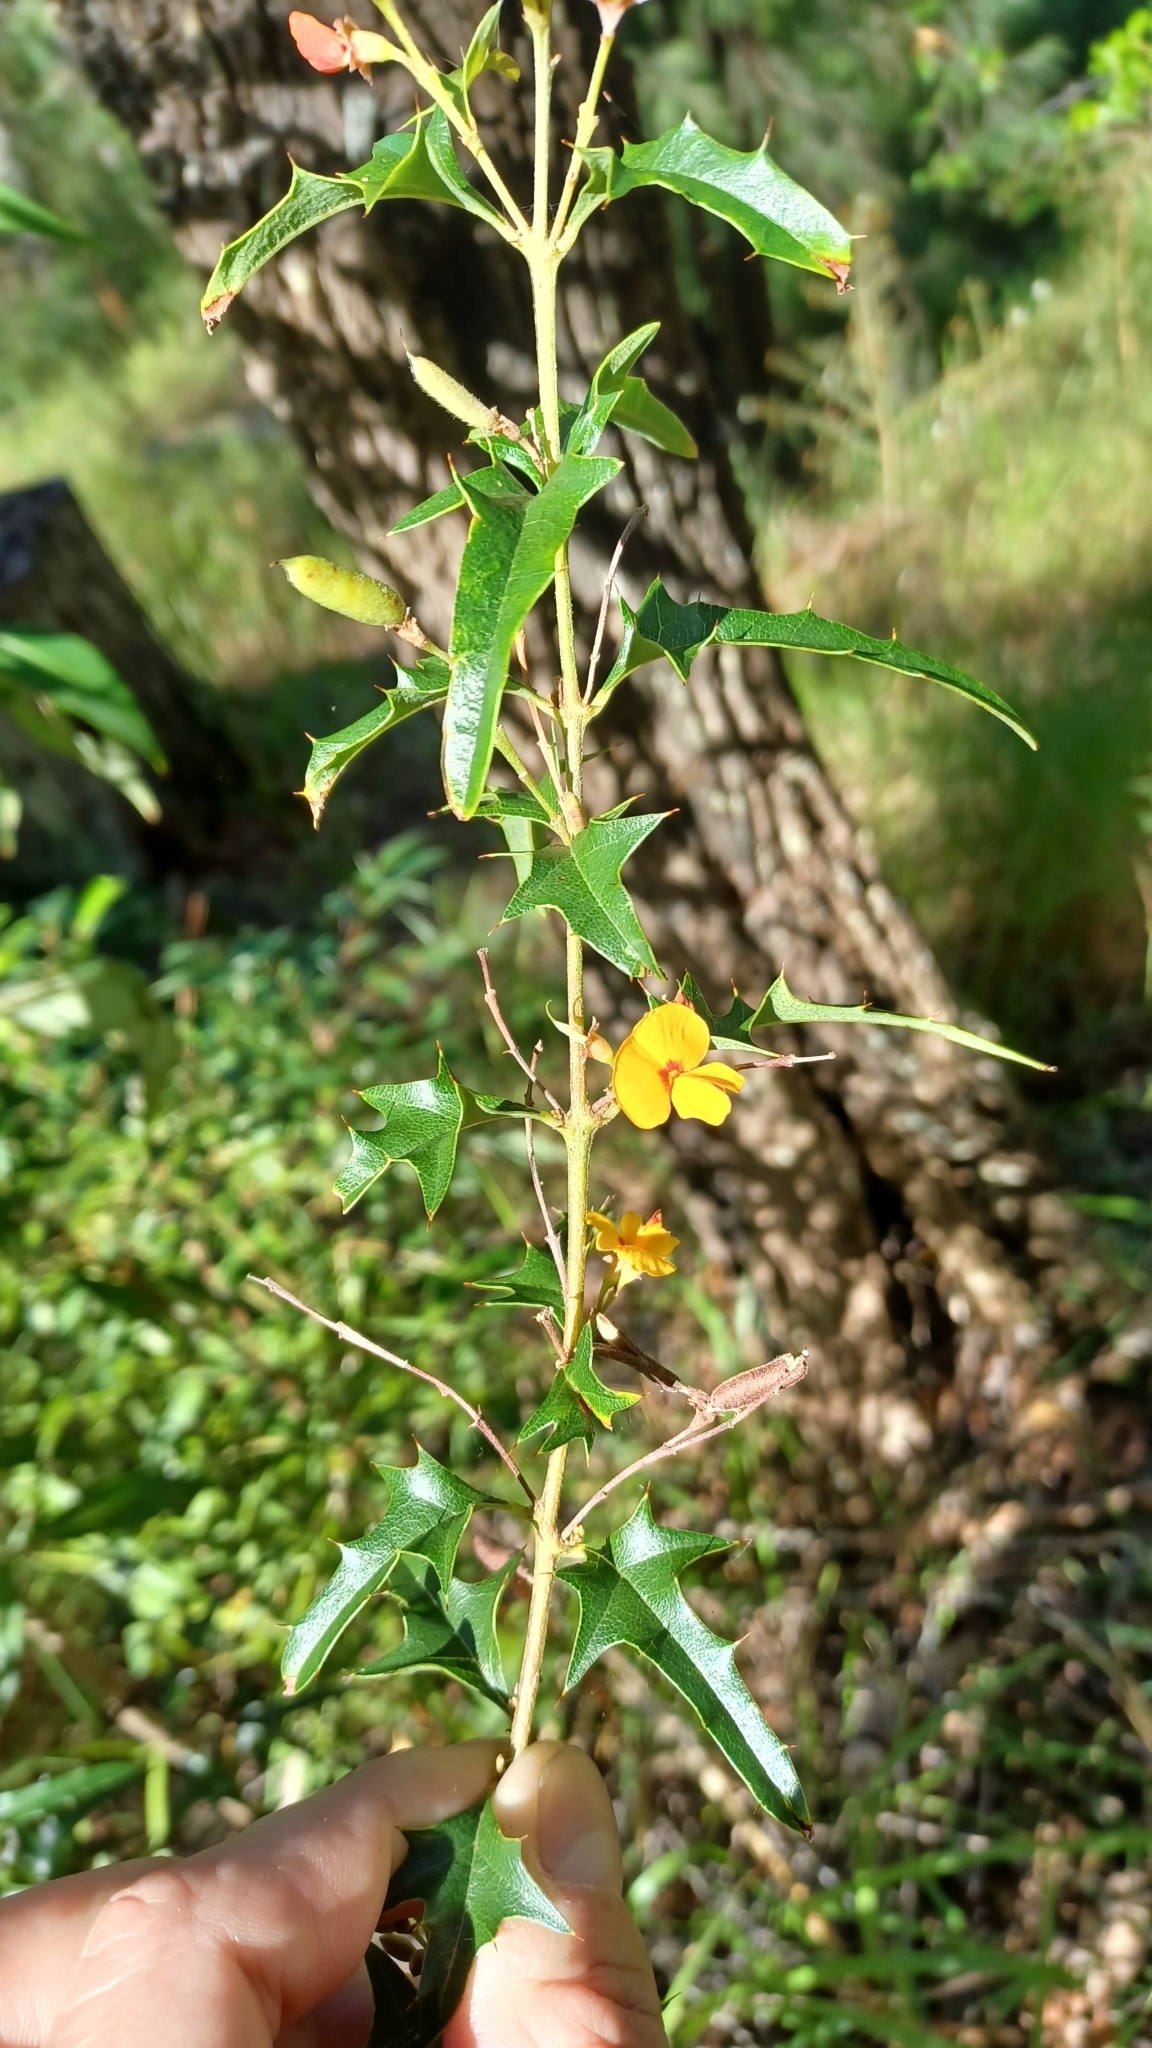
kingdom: Plantae
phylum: Tracheophyta
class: Magnoliopsida
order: Fabales
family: Fabaceae
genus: Podolobium
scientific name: Podolobium ilicifolium
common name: Native holly
